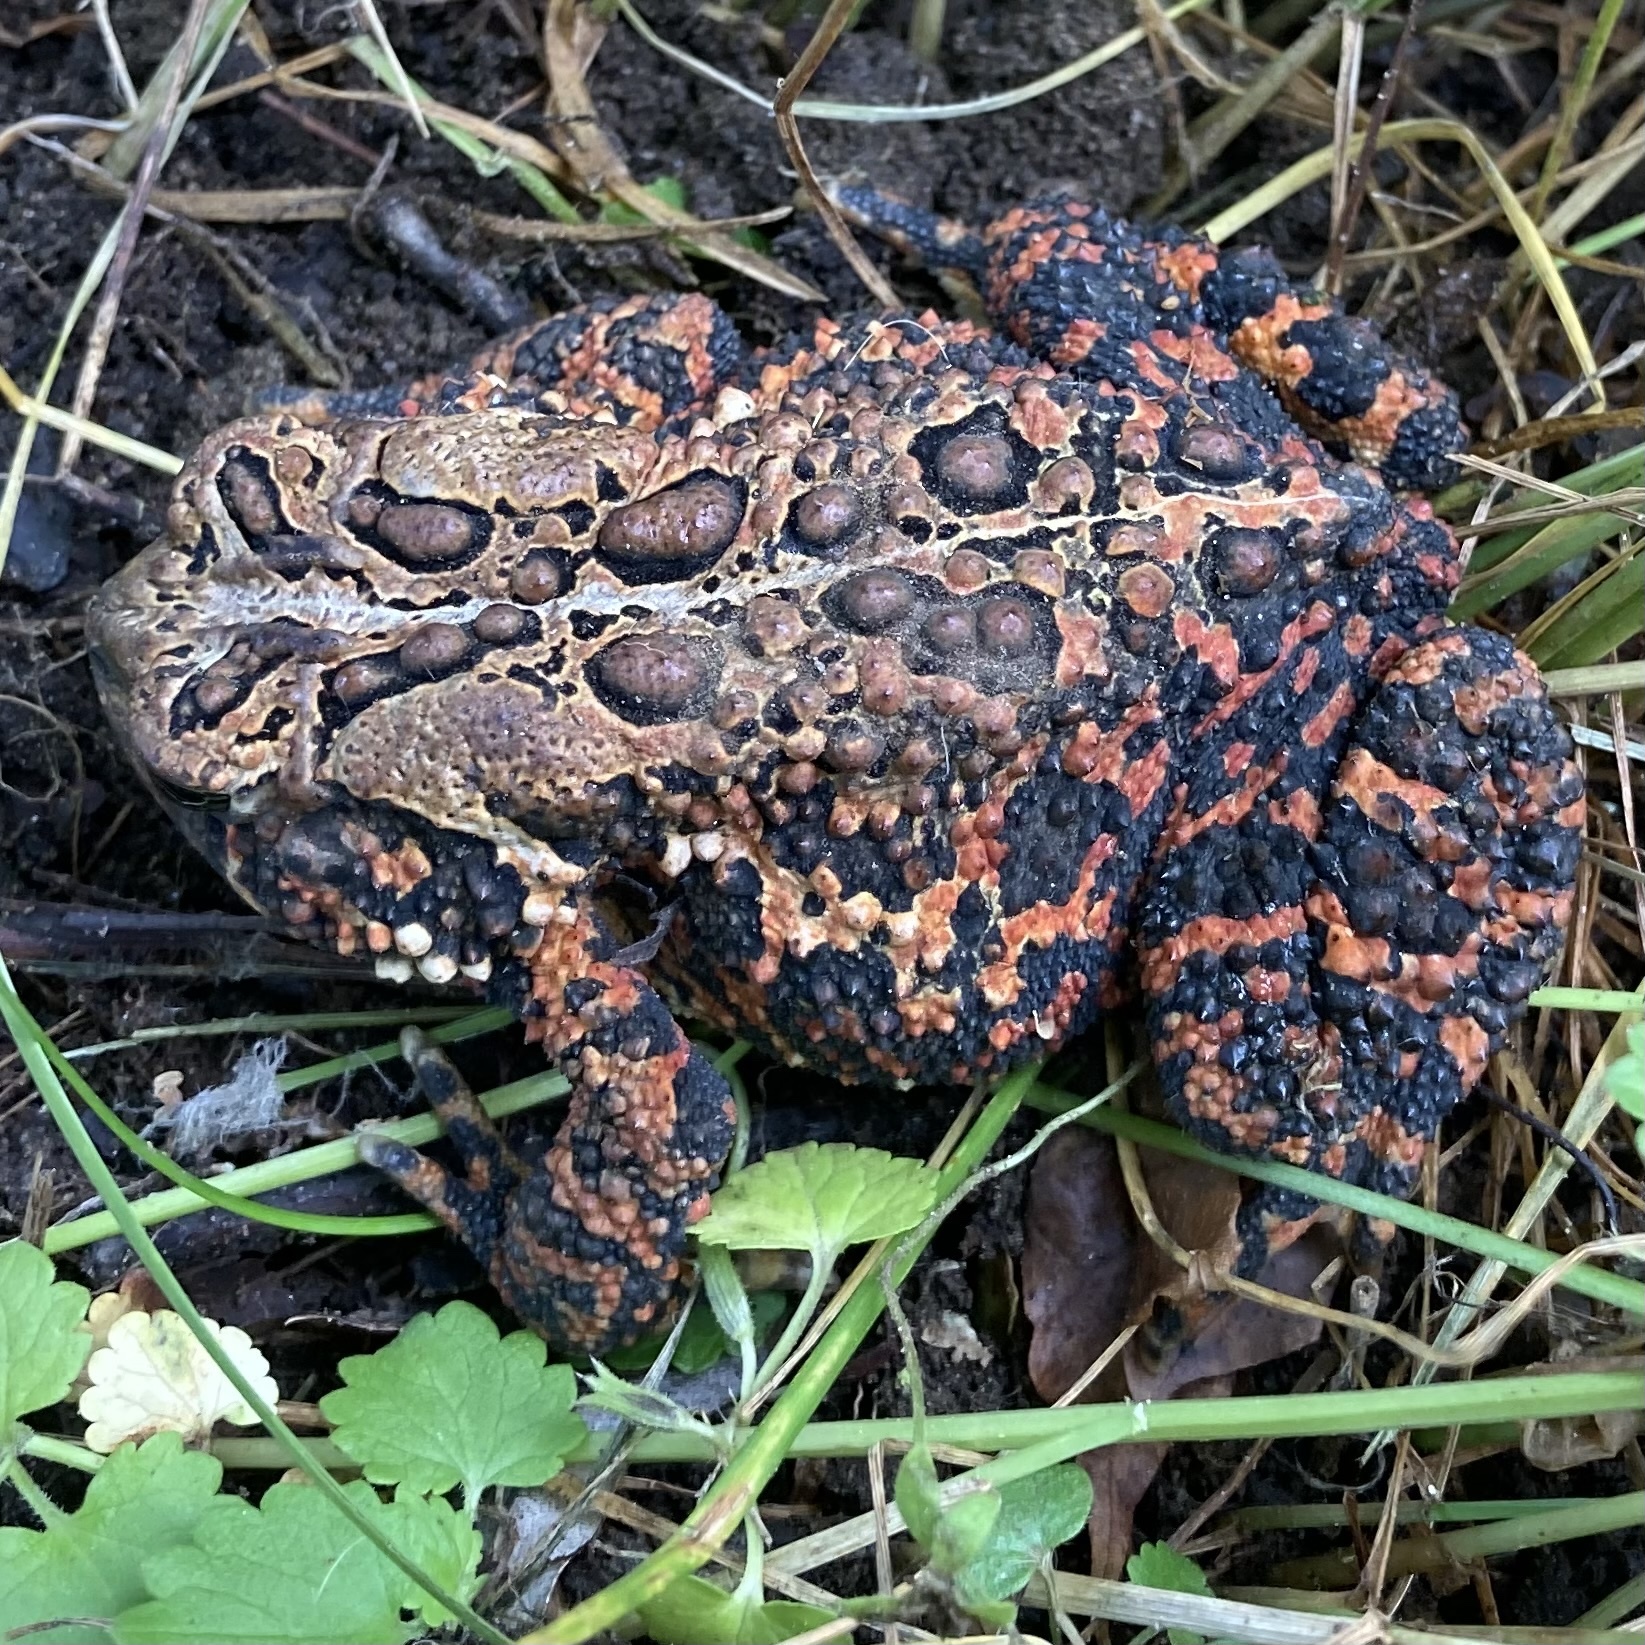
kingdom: Animalia
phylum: Chordata
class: Amphibia
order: Anura
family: Bufonidae
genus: Anaxyrus
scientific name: Anaxyrus americanus
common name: American toad
